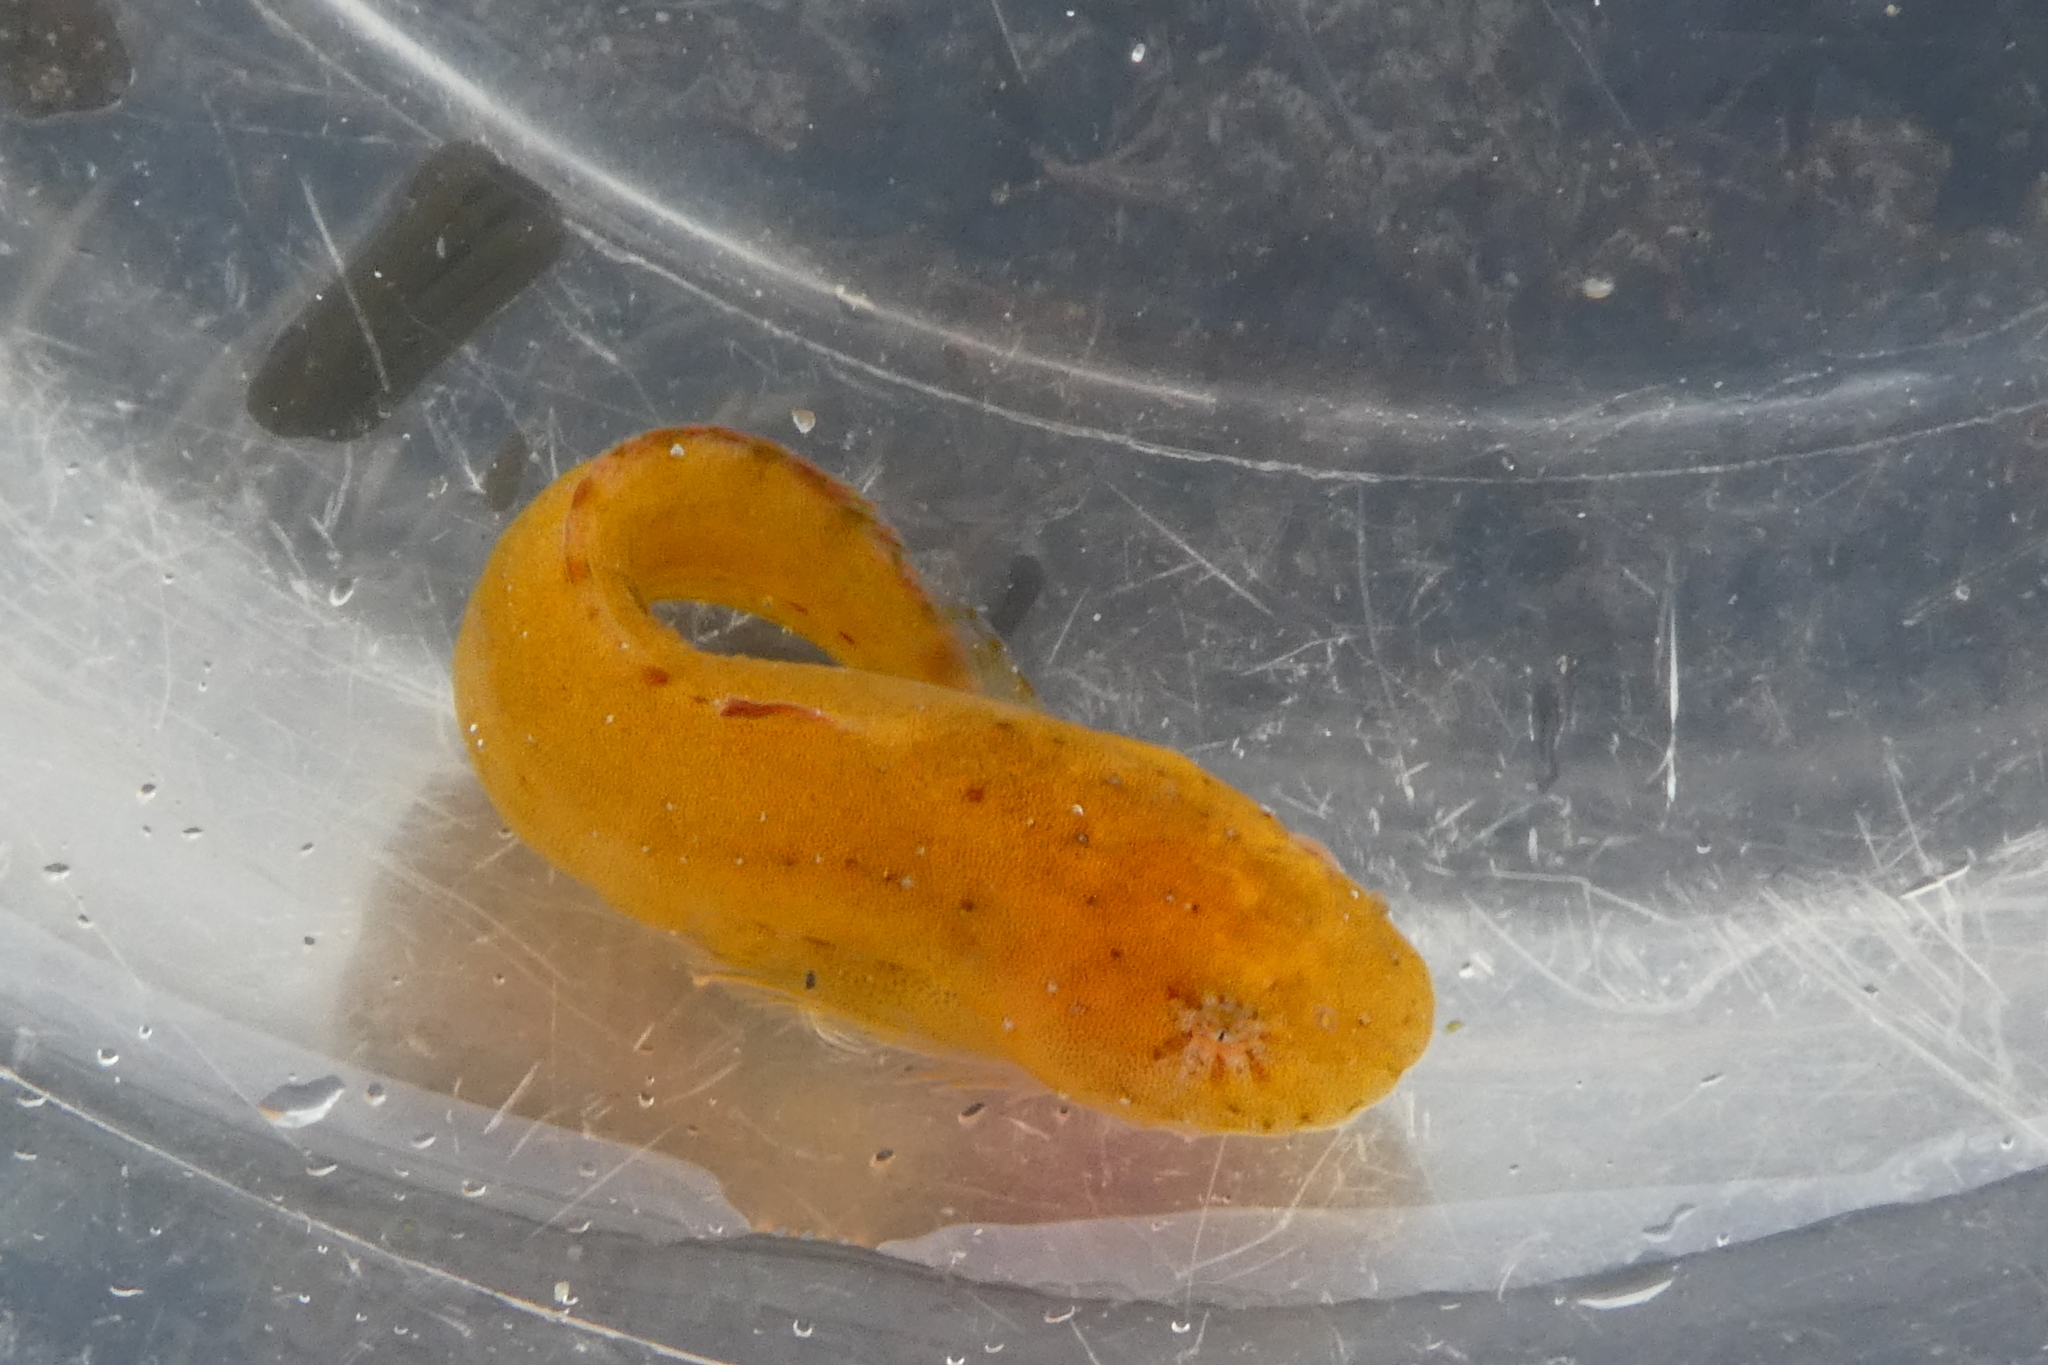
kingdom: Animalia
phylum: Chordata
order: Scorpaeniformes
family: Liparidae
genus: Liparis
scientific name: Liparis florae
